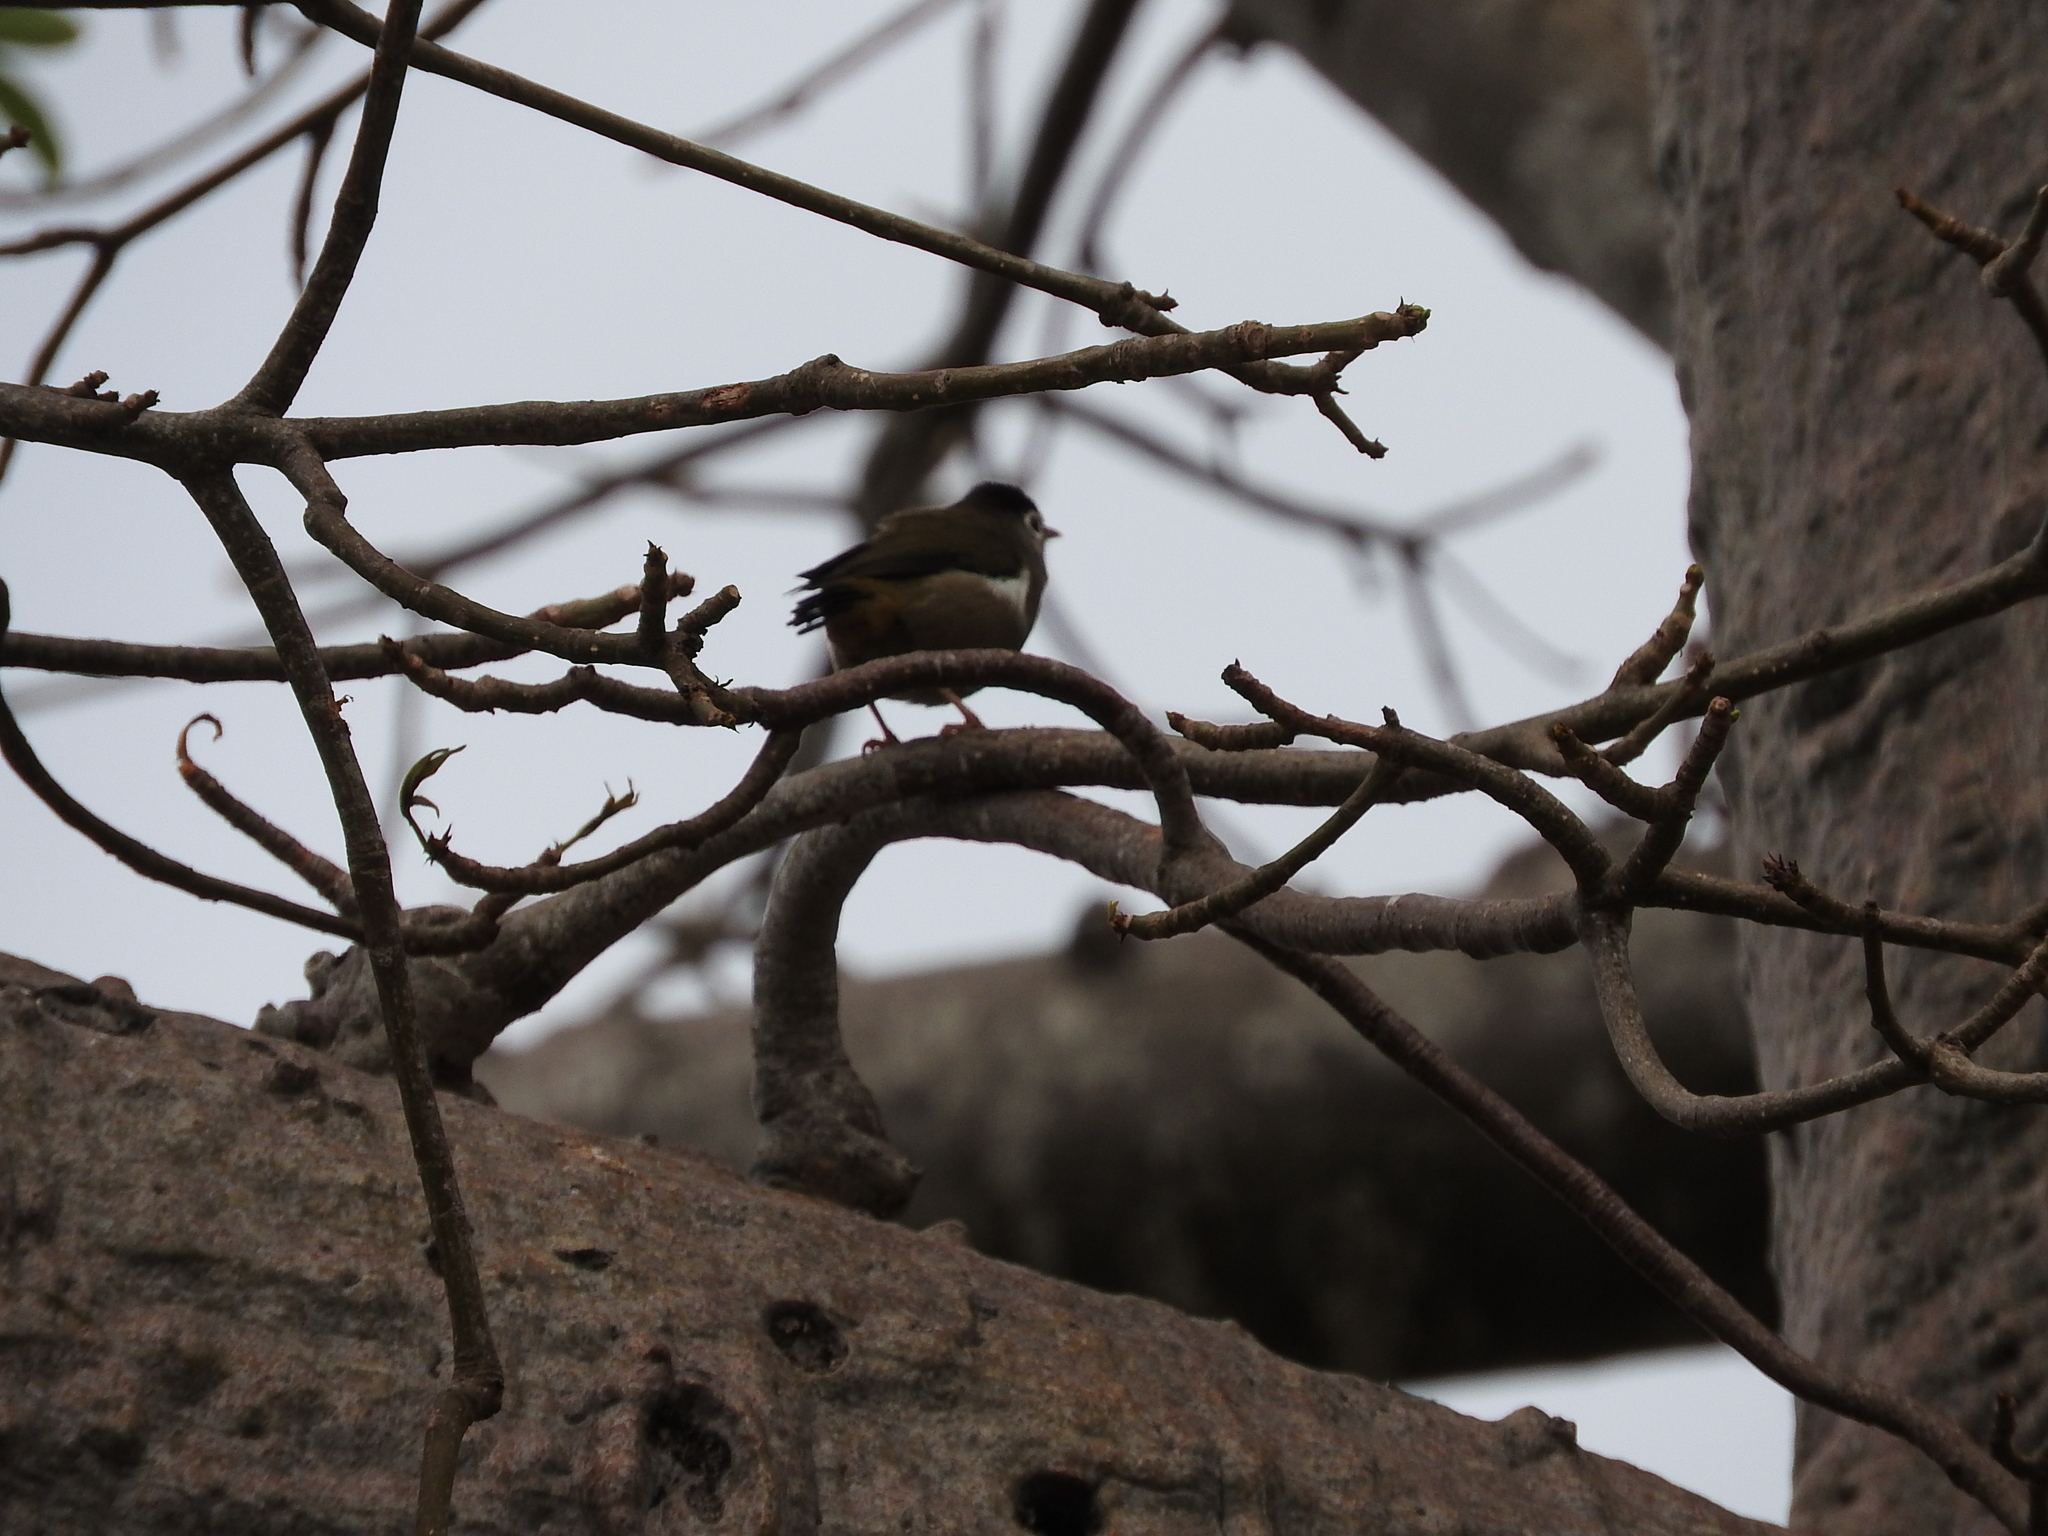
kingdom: Animalia
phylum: Chordata
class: Aves
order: Passeriformes
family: Zosteropidae
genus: Zosterops
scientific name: Zosterops lugubris
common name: Black-capped speirops
